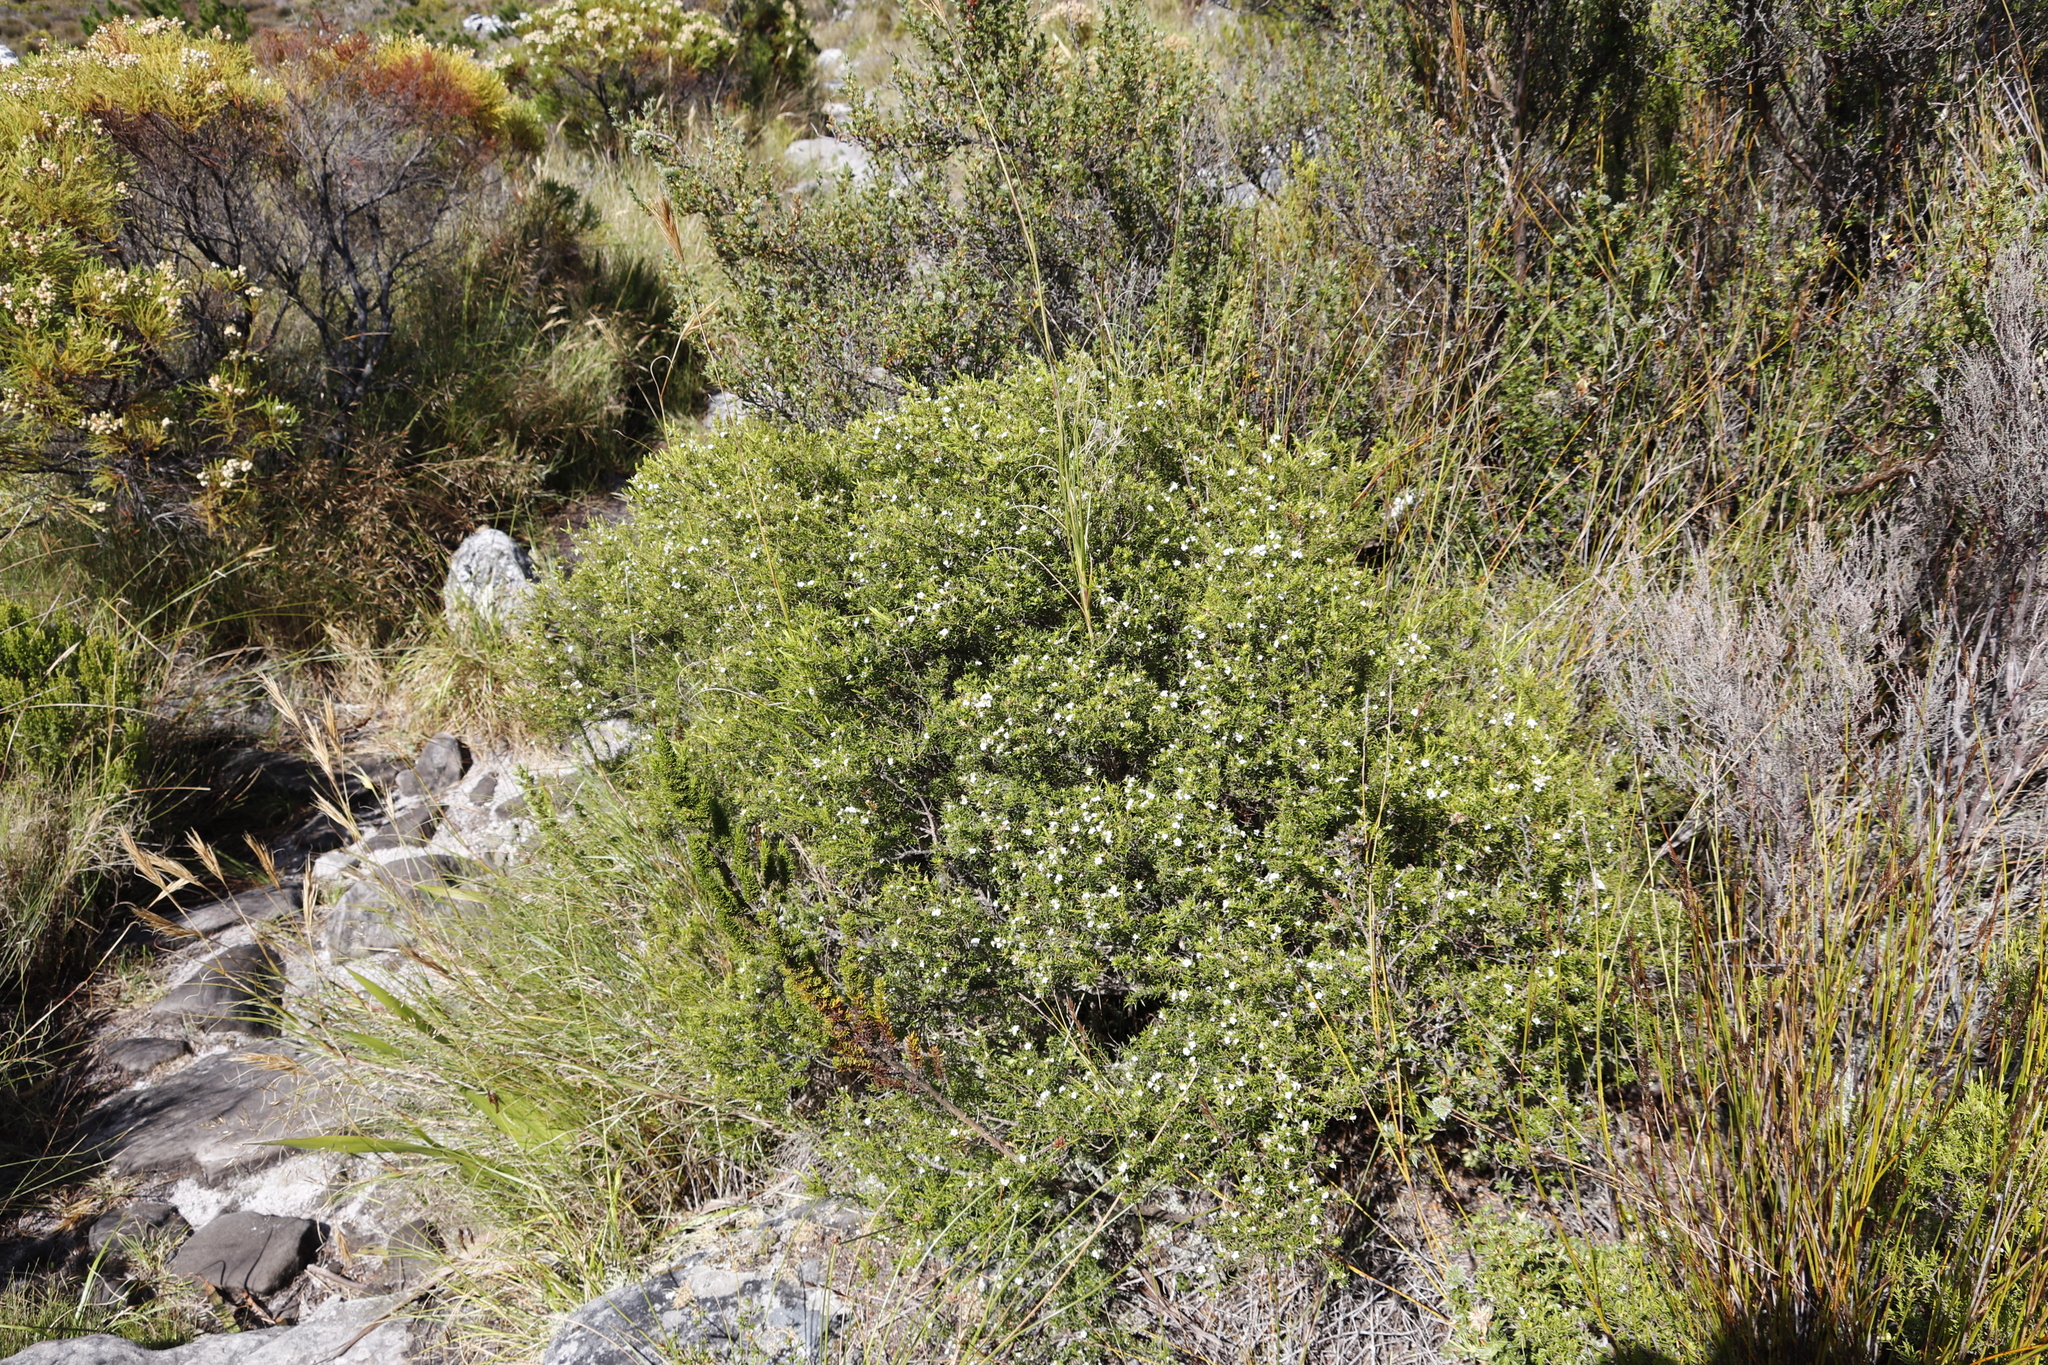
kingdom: Plantae
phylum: Tracheophyta
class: Magnoliopsida
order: Sapindales
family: Rutaceae
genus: Coleonema
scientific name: Coleonema album
